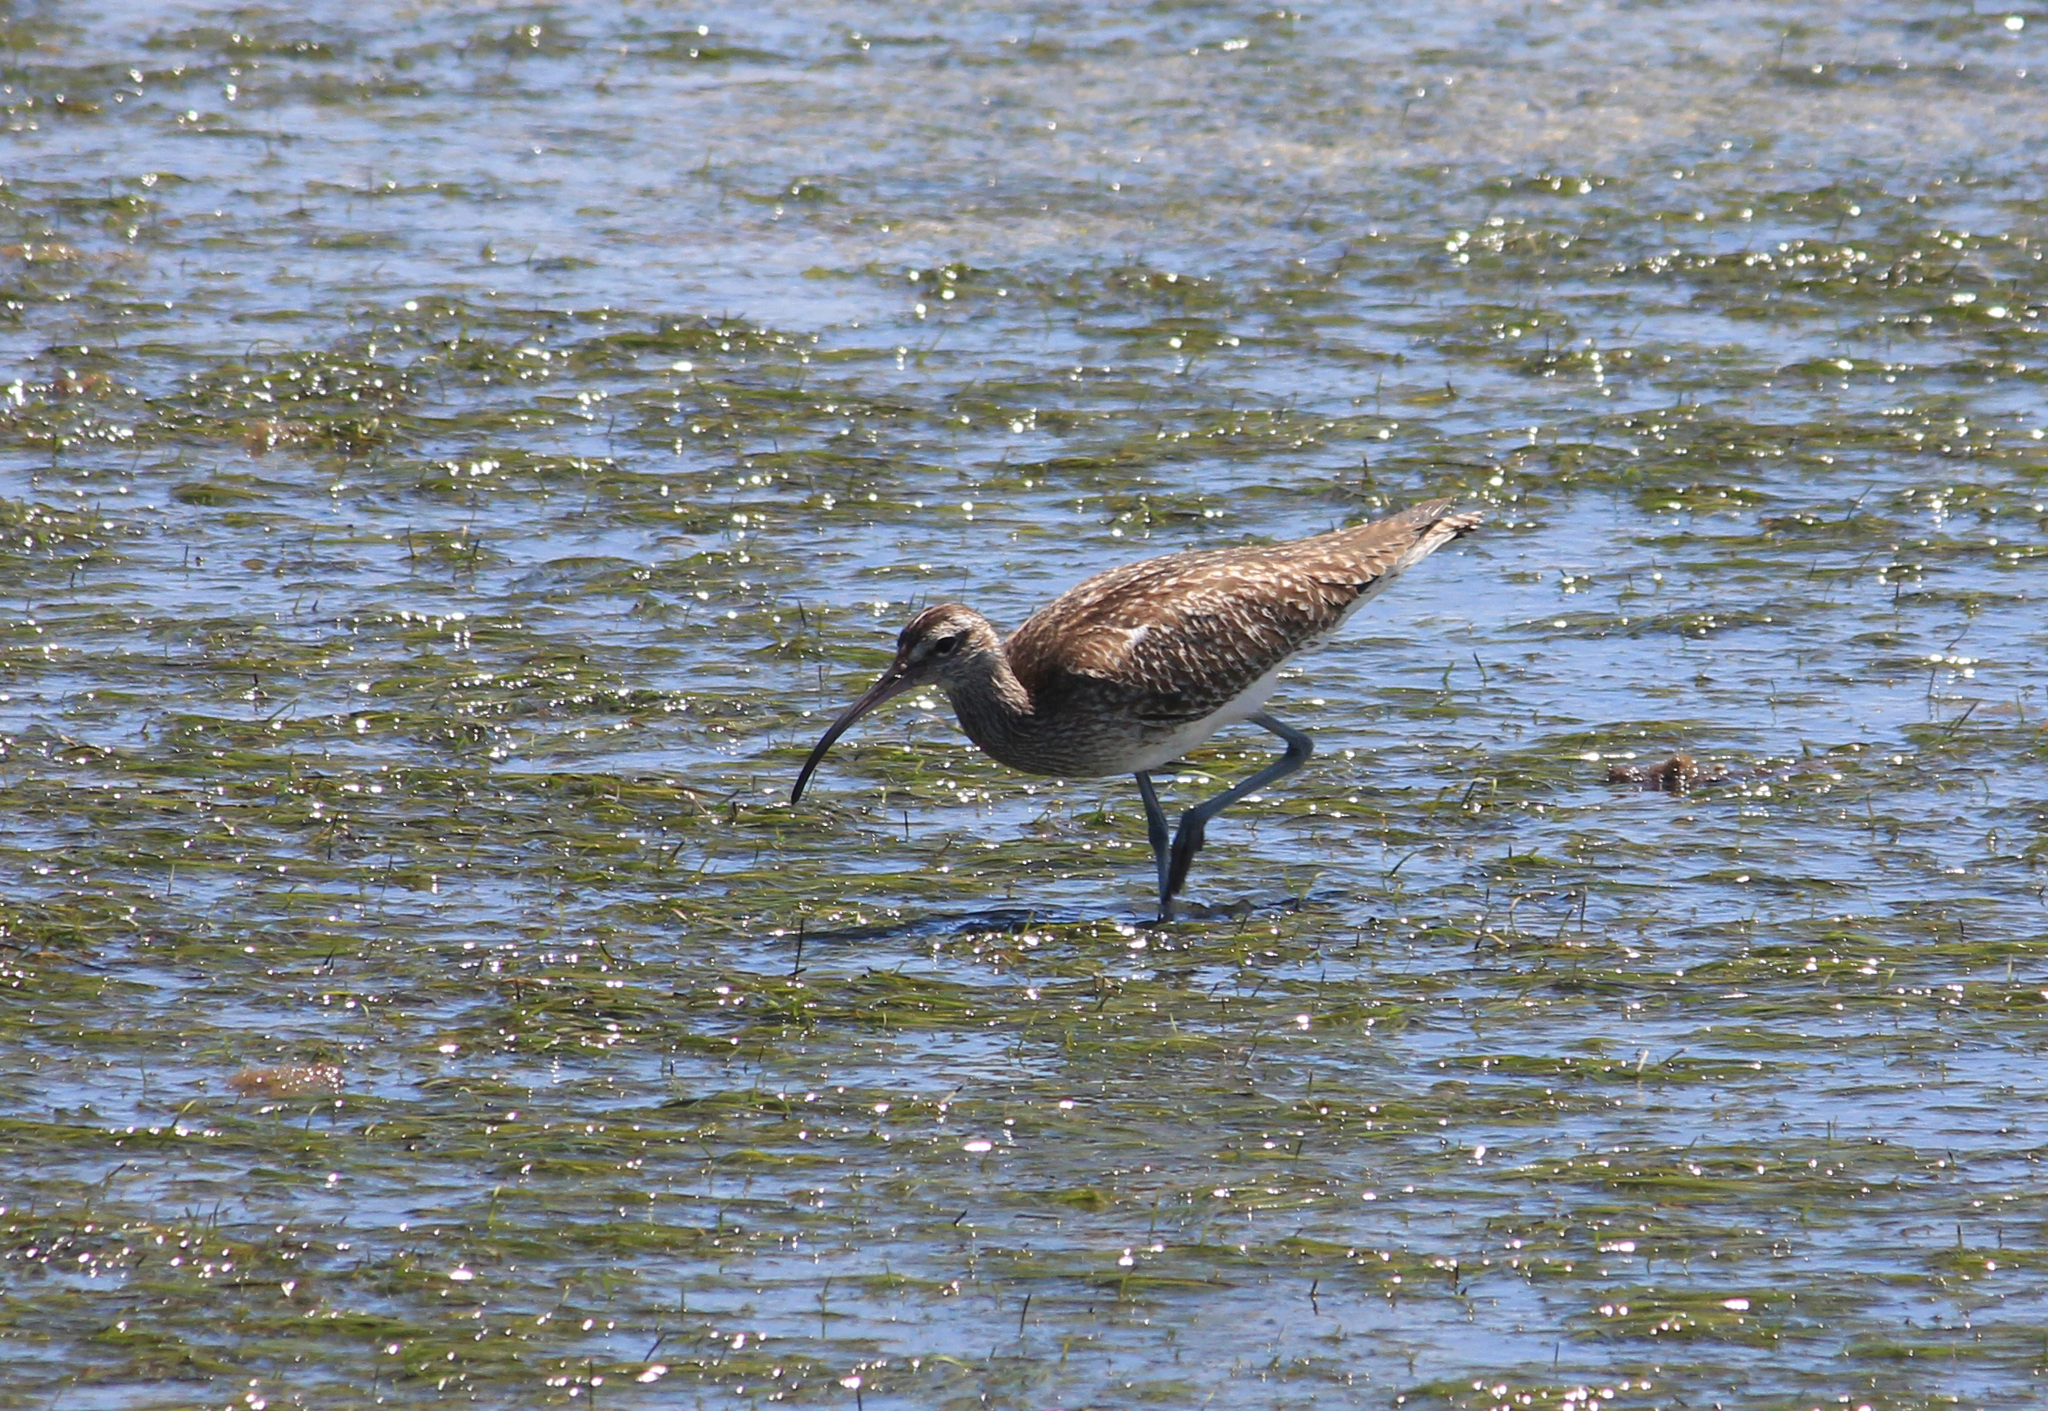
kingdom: Animalia
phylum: Chordata
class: Aves
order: Charadriiformes
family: Scolopacidae
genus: Numenius
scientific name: Numenius phaeopus
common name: Whimbrel
